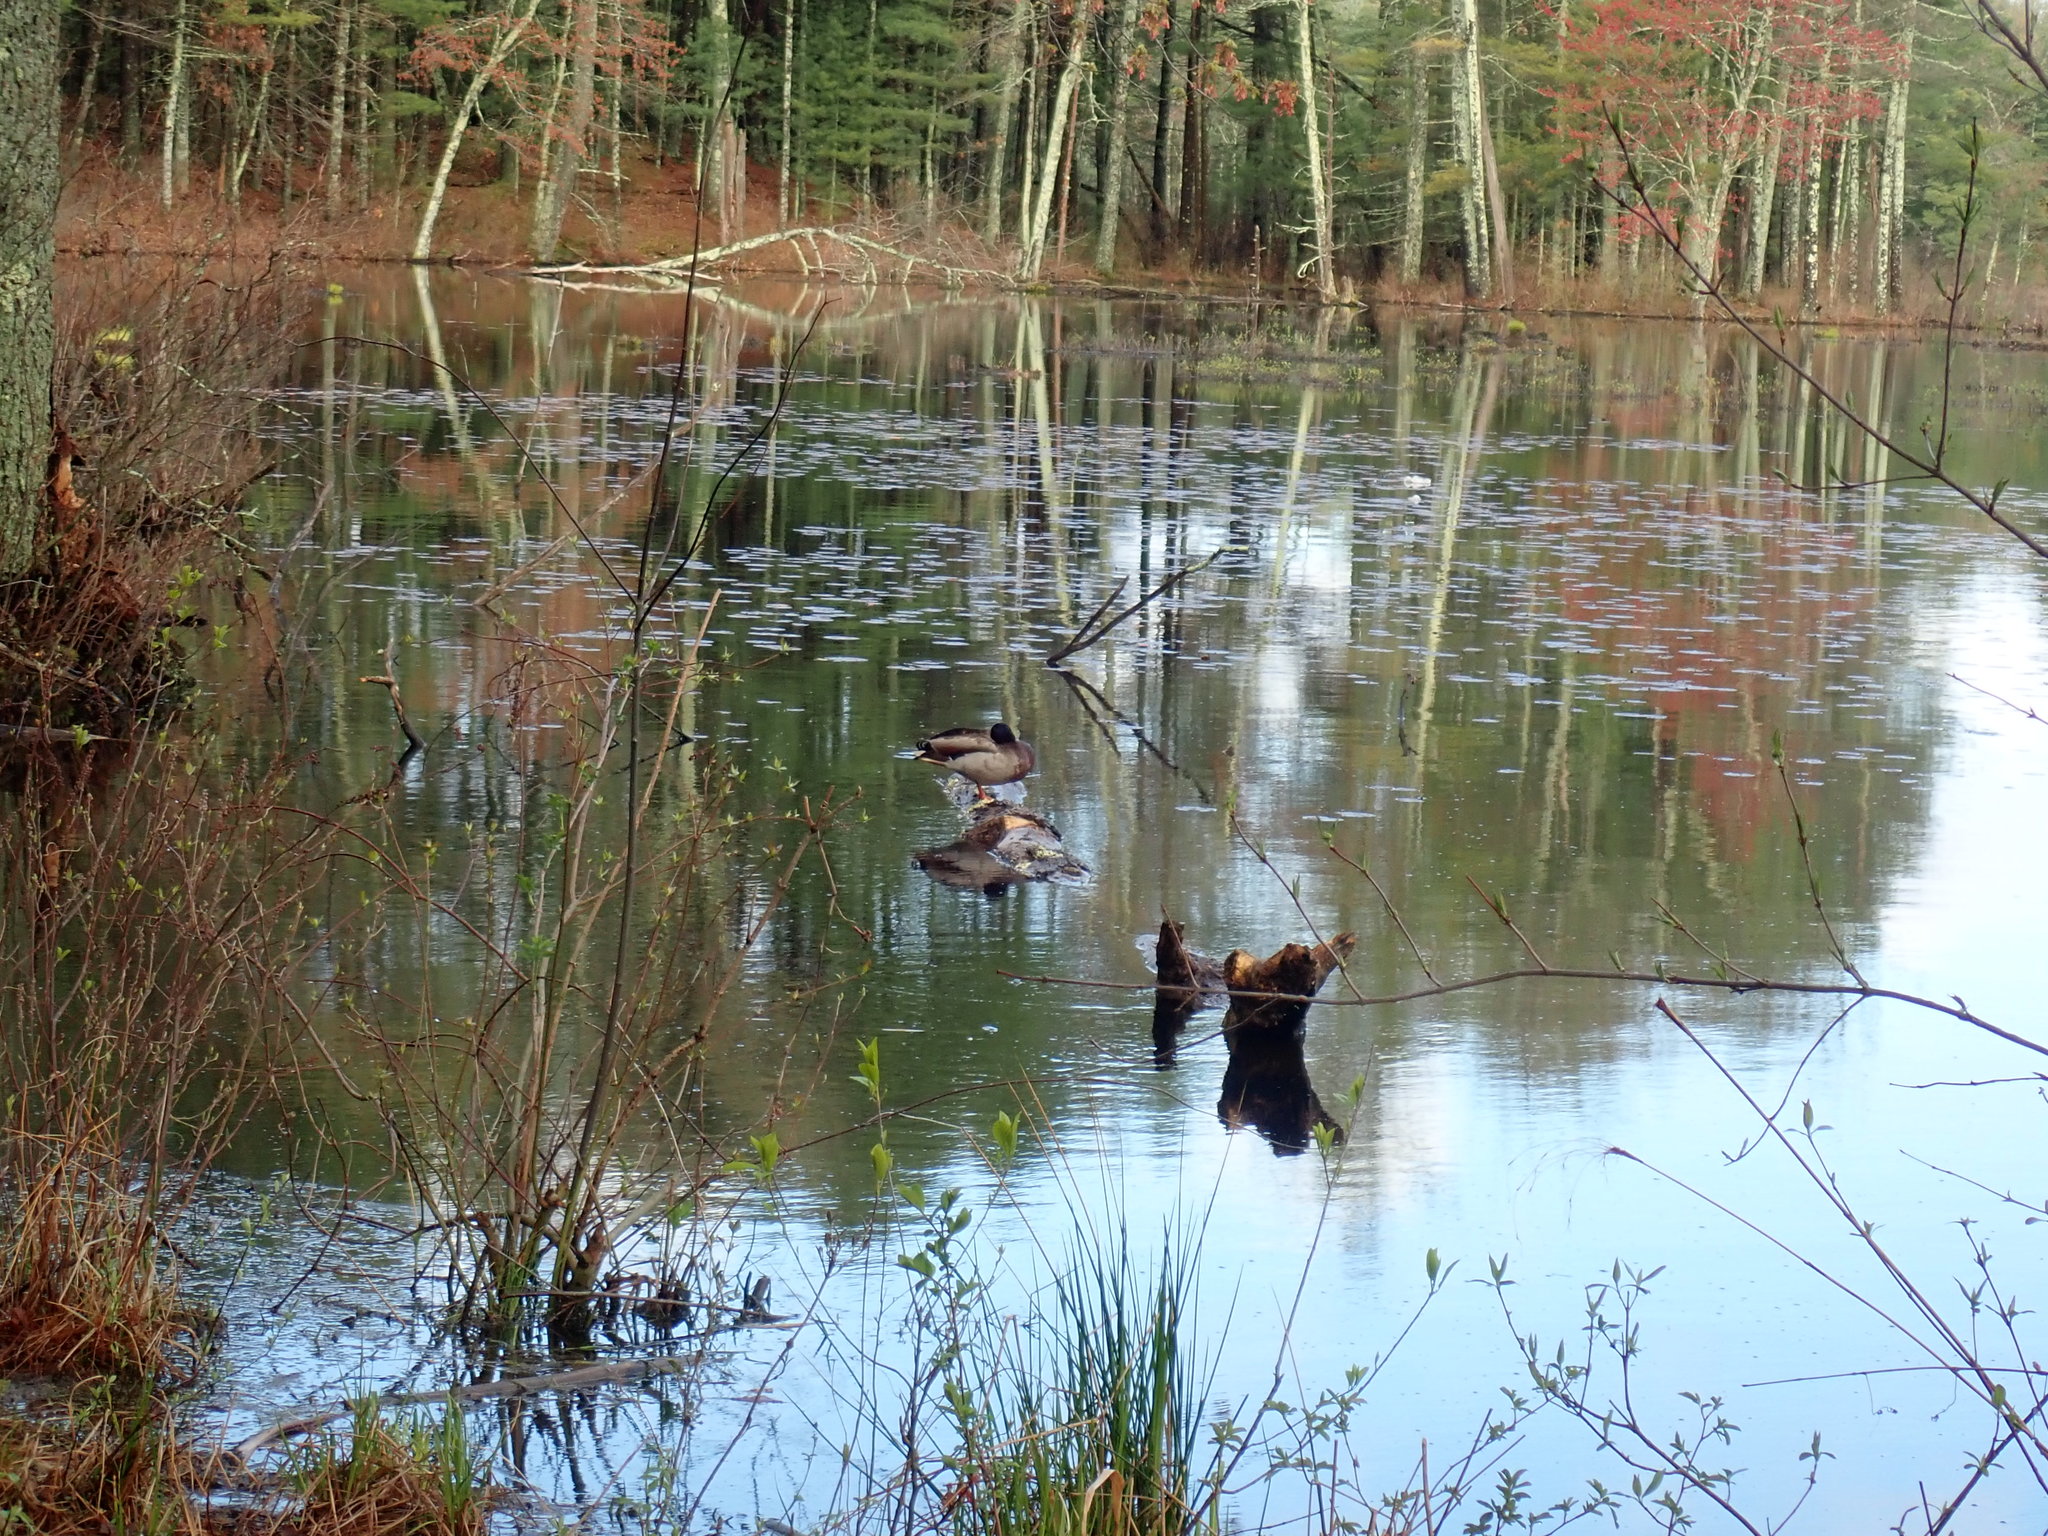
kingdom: Animalia
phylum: Chordata
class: Aves
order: Anseriformes
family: Anatidae
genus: Anas
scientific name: Anas platyrhynchos
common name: Mallard
